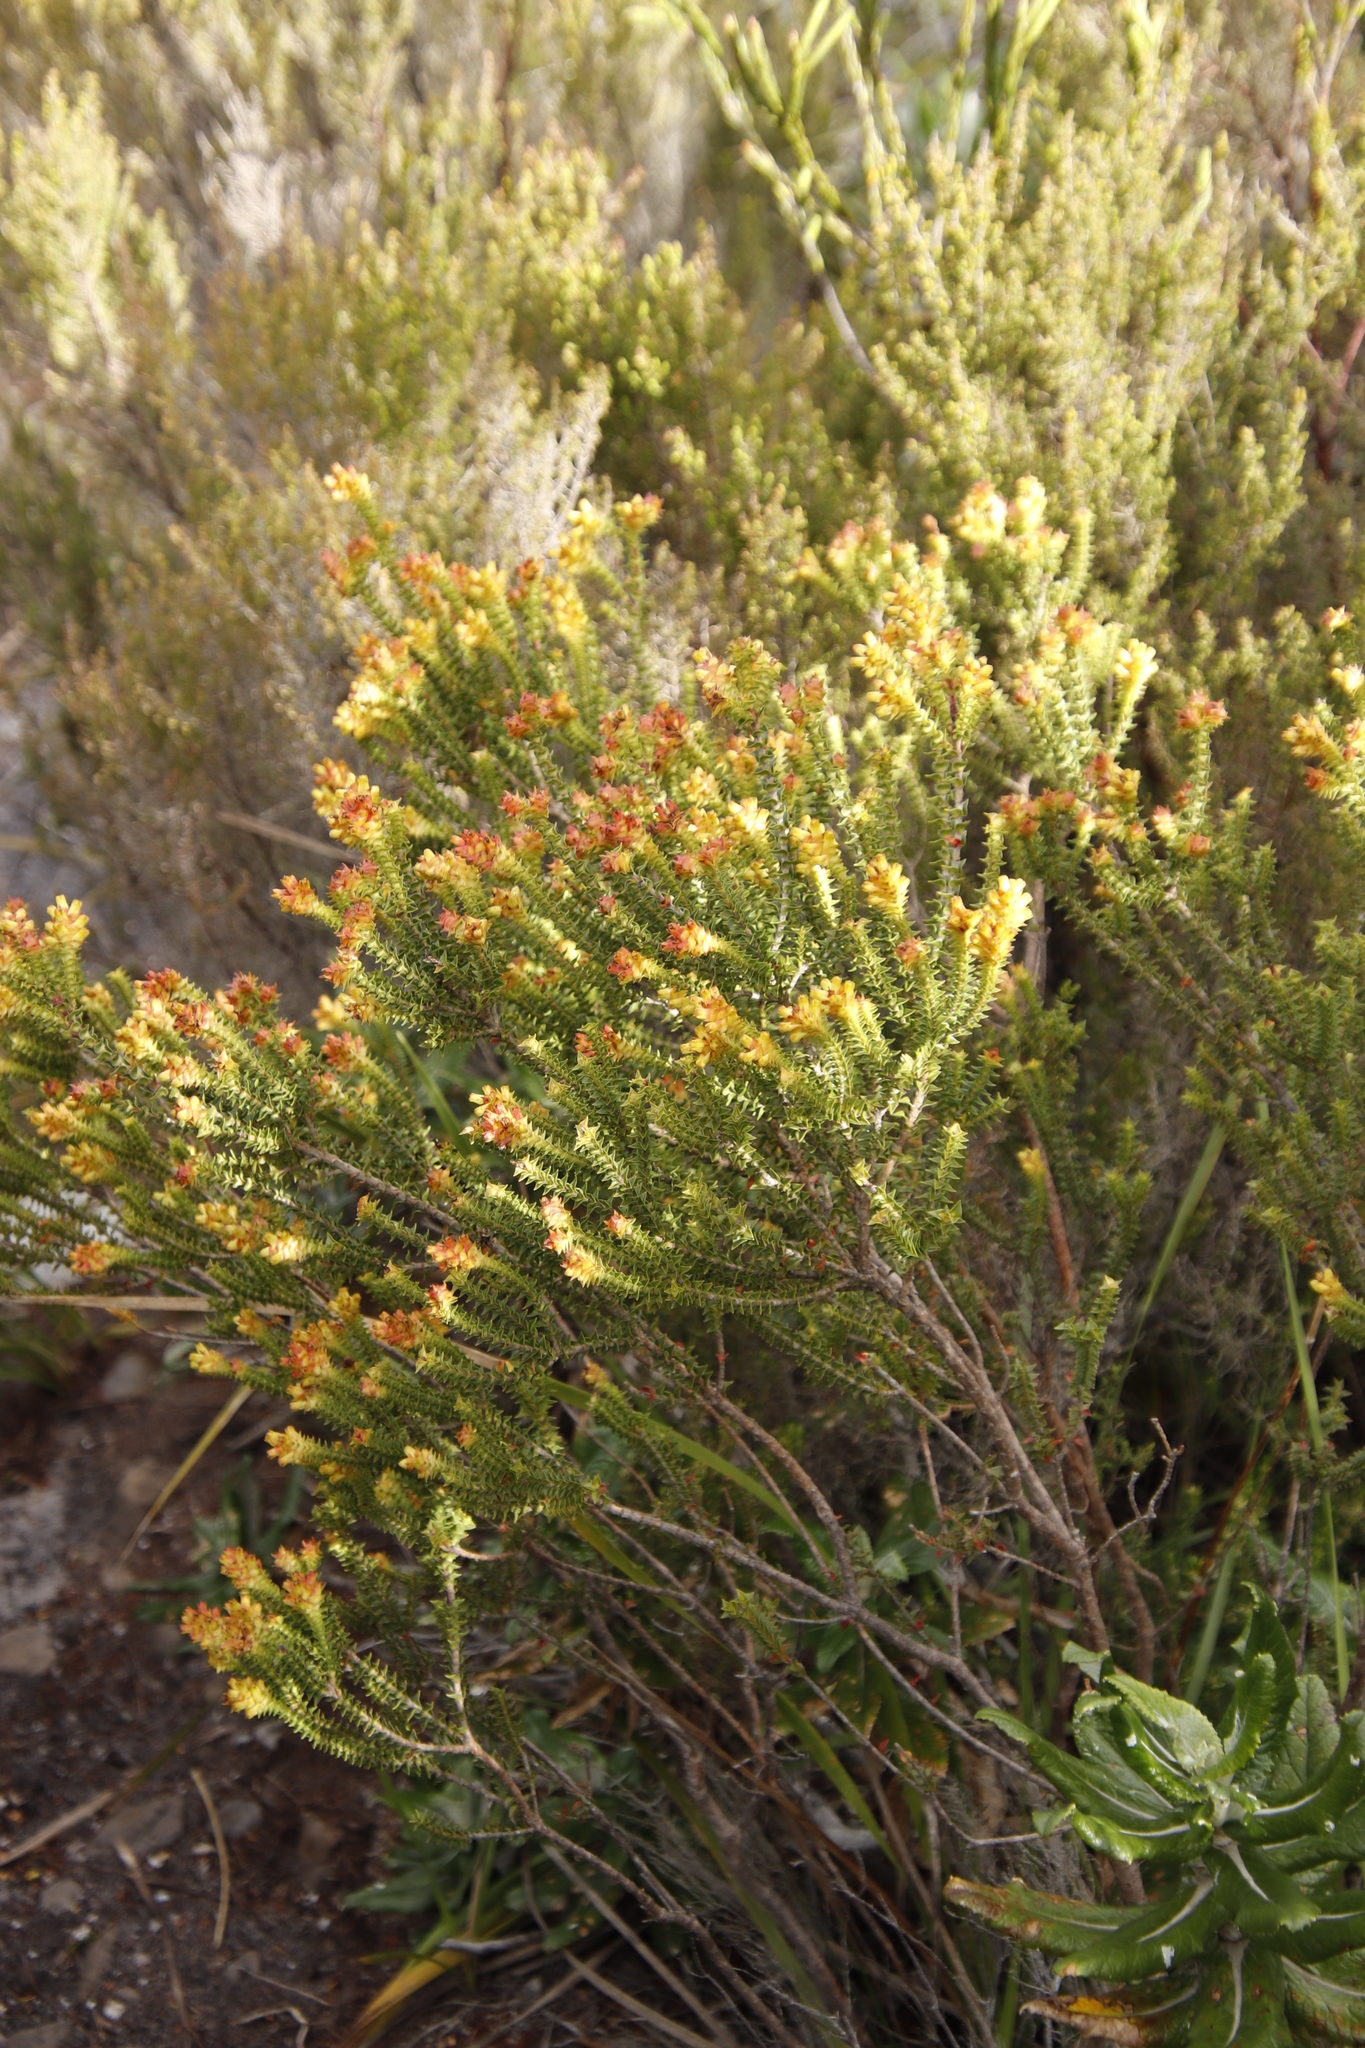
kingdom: Plantae
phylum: Tracheophyta
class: Magnoliopsida
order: Myrtales
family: Penaeaceae
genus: Penaea
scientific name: Penaea mucronata
